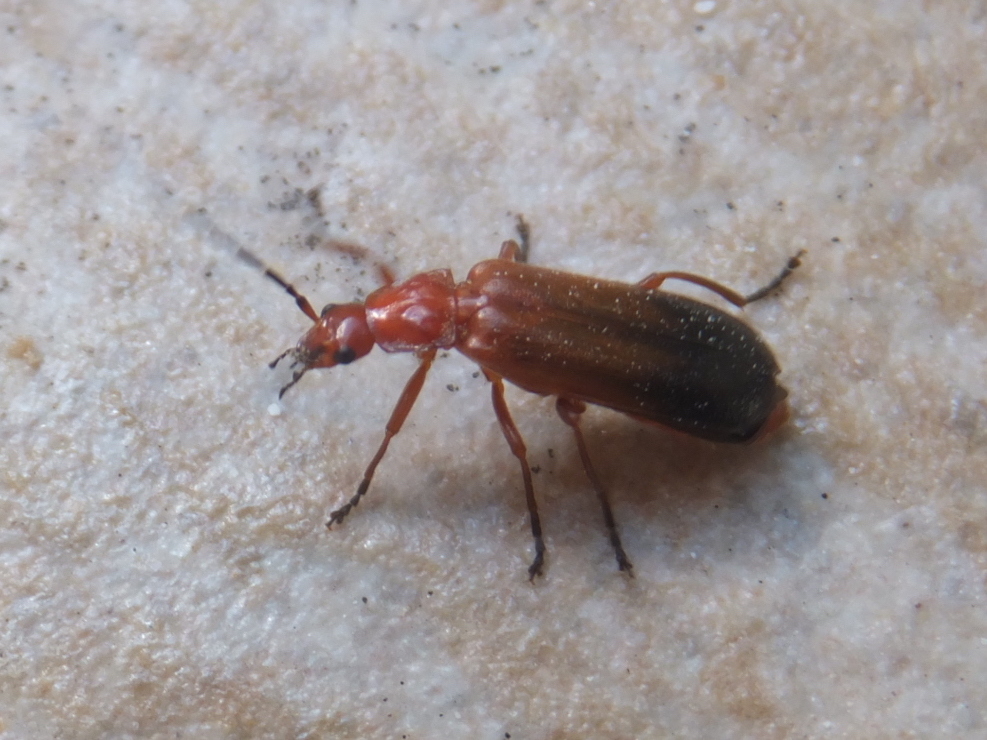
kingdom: Animalia
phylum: Arthropoda
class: Insecta
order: Coleoptera
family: Cantharidae
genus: Rhagonycha
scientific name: Rhagonycha fulva
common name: Common red soldier beetle
